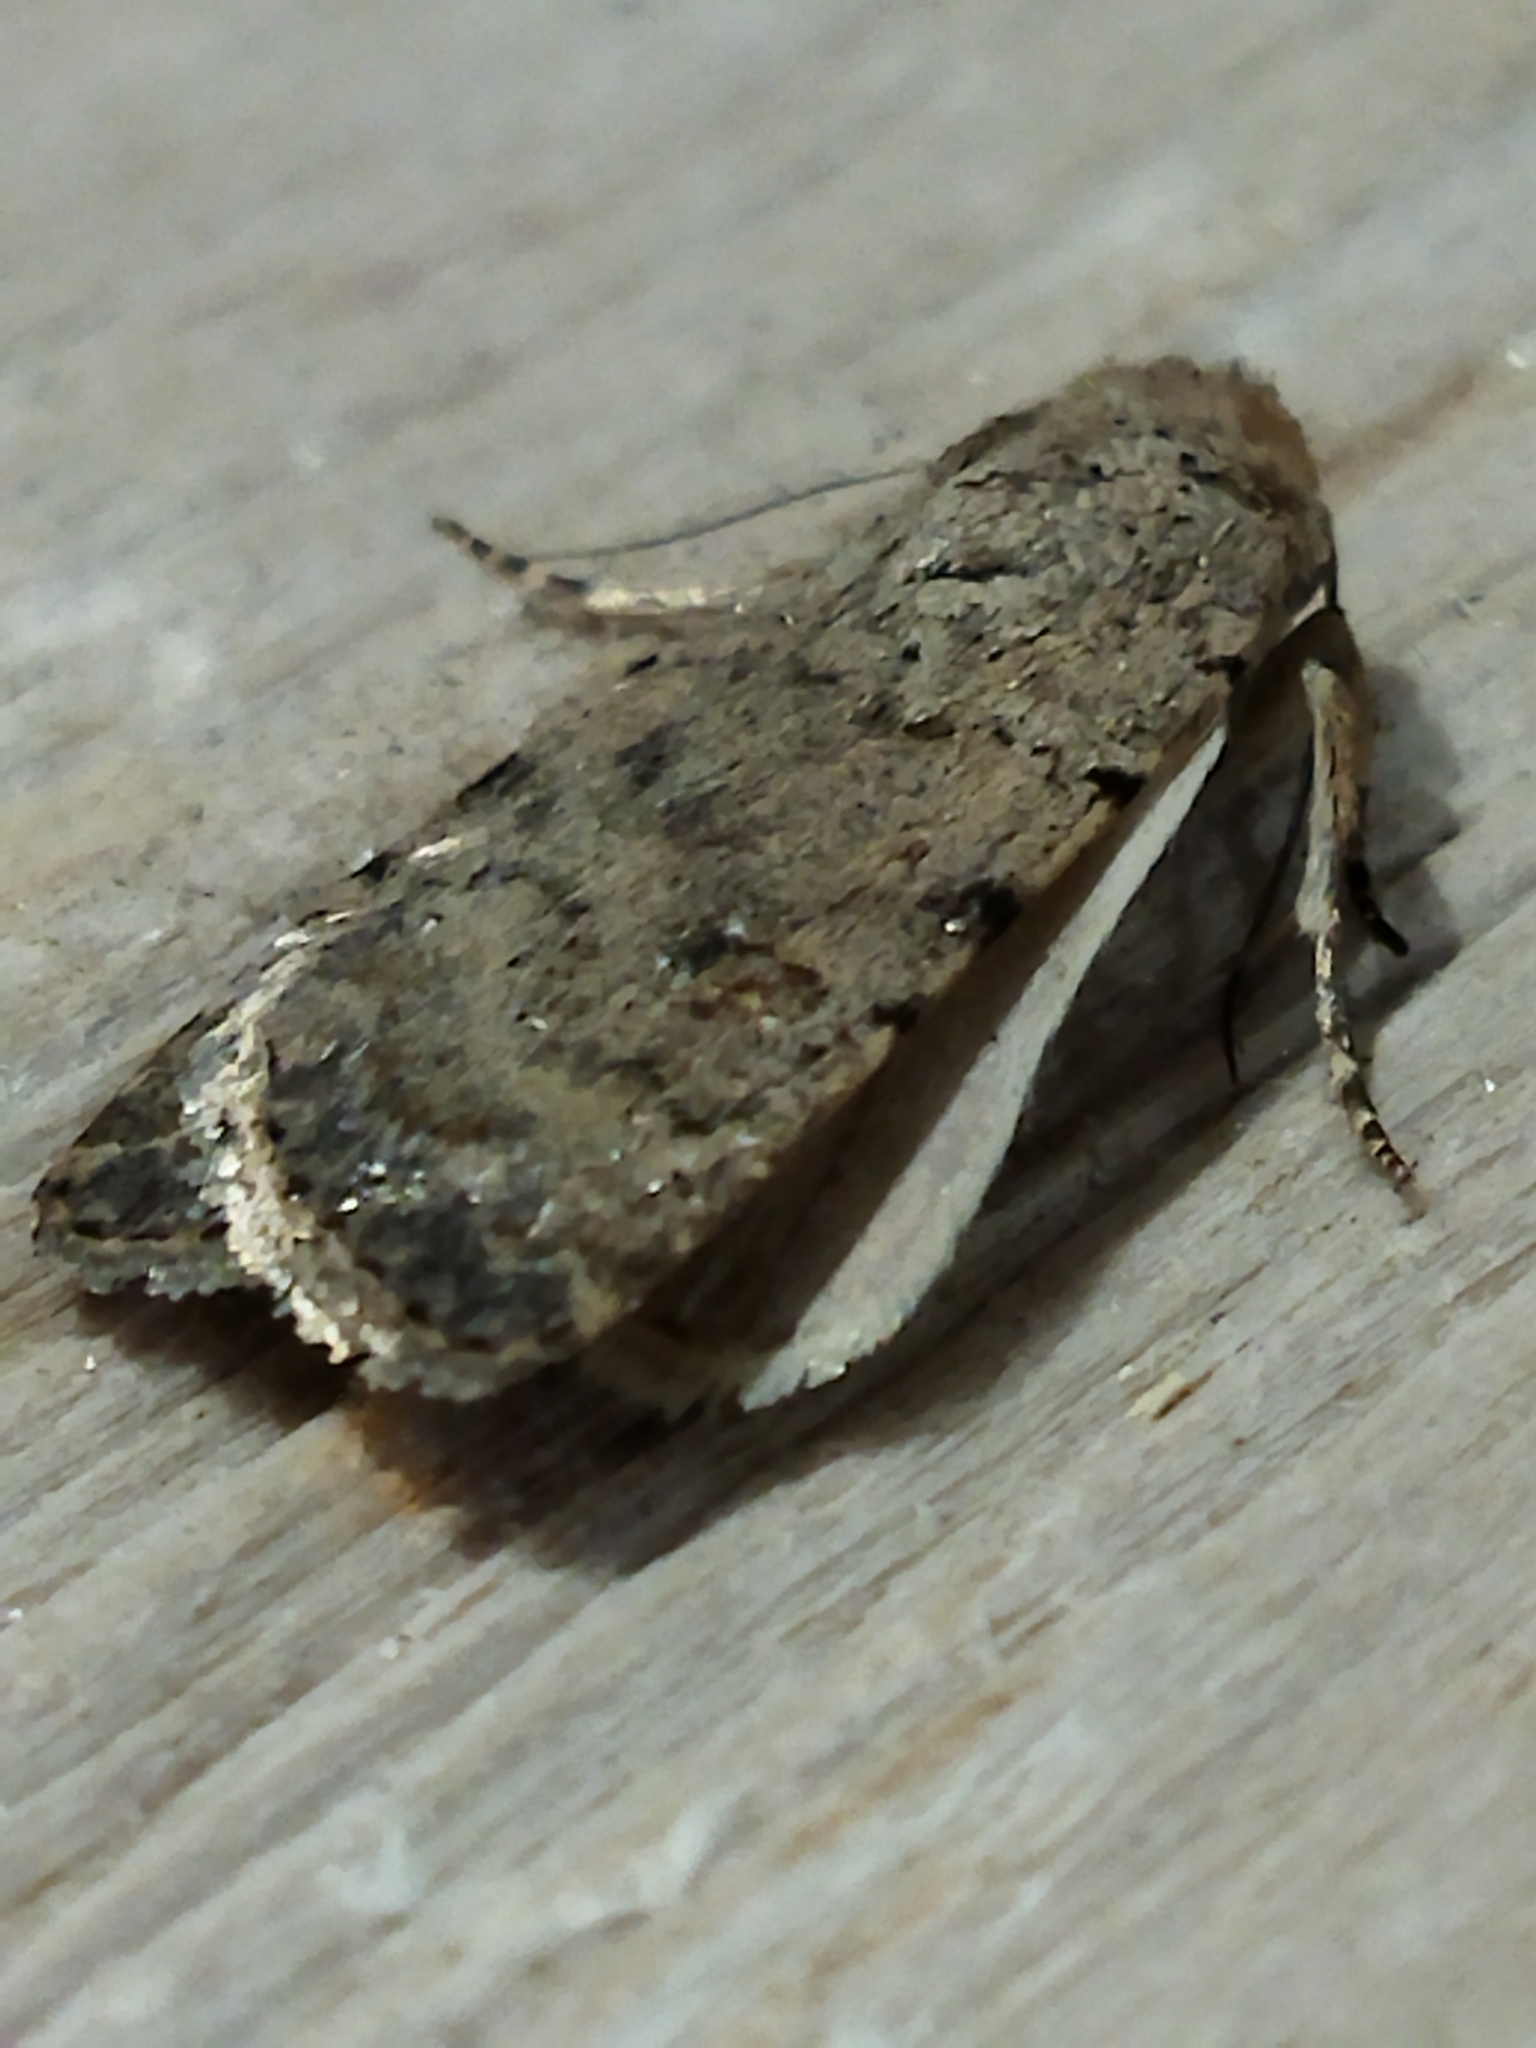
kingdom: Animalia
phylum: Arthropoda
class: Insecta
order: Lepidoptera
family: Noctuidae
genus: Caradrina
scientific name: Caradrina clavipalpis
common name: Pale mottled willow
